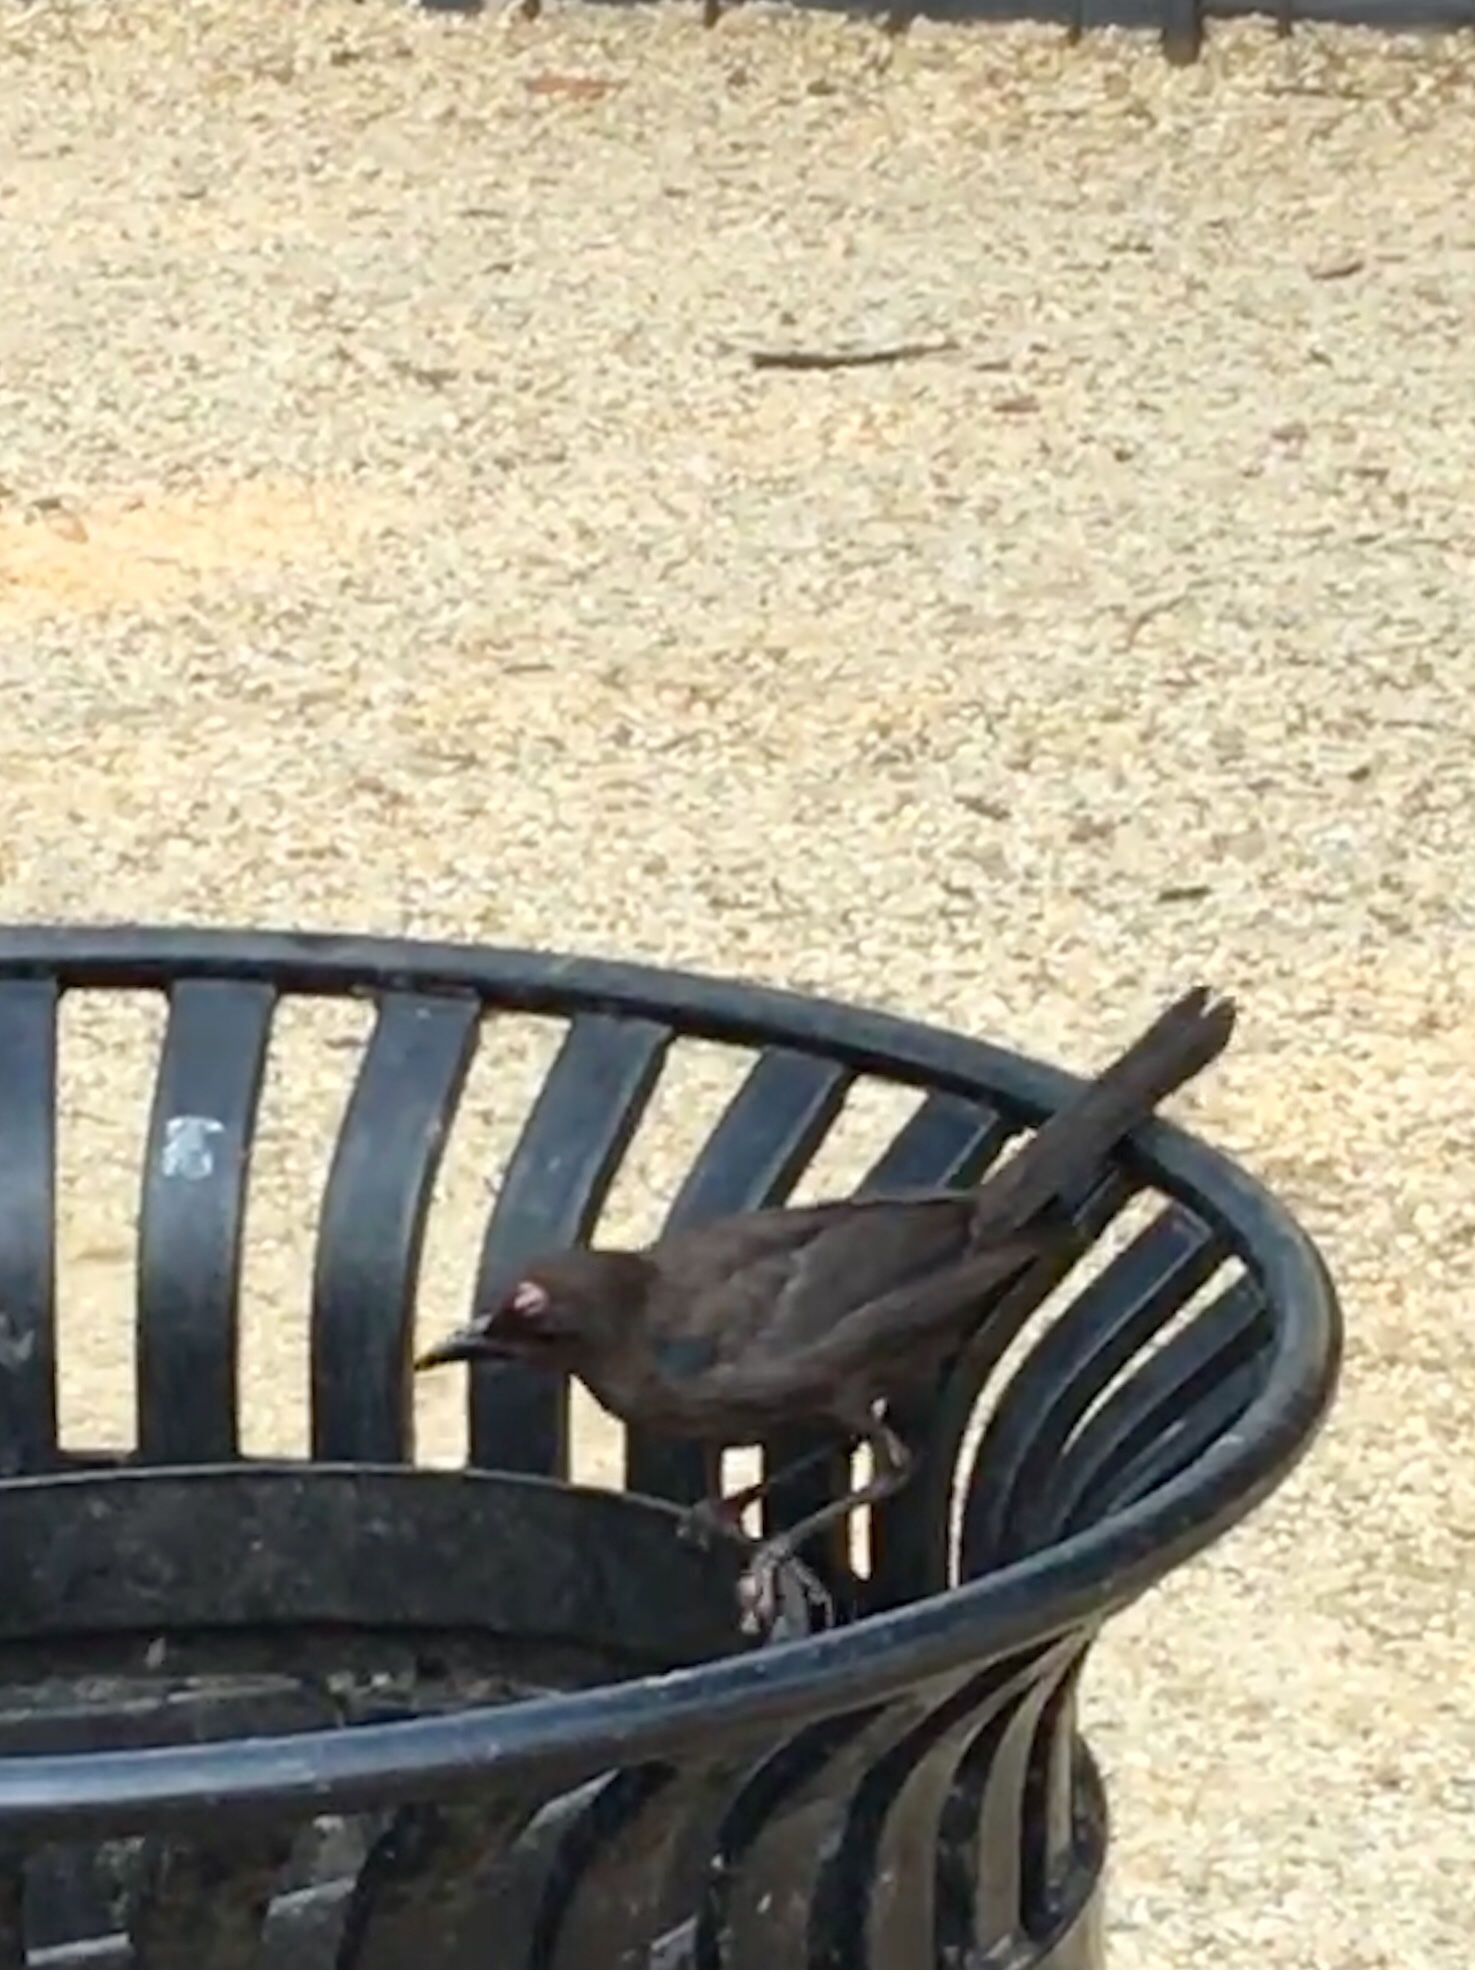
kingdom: Animalia
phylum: Chordata
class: Aves
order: Passeriformes
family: Icteridae
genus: Quiscalus
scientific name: Quiscalus quiscula
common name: Common grackle
